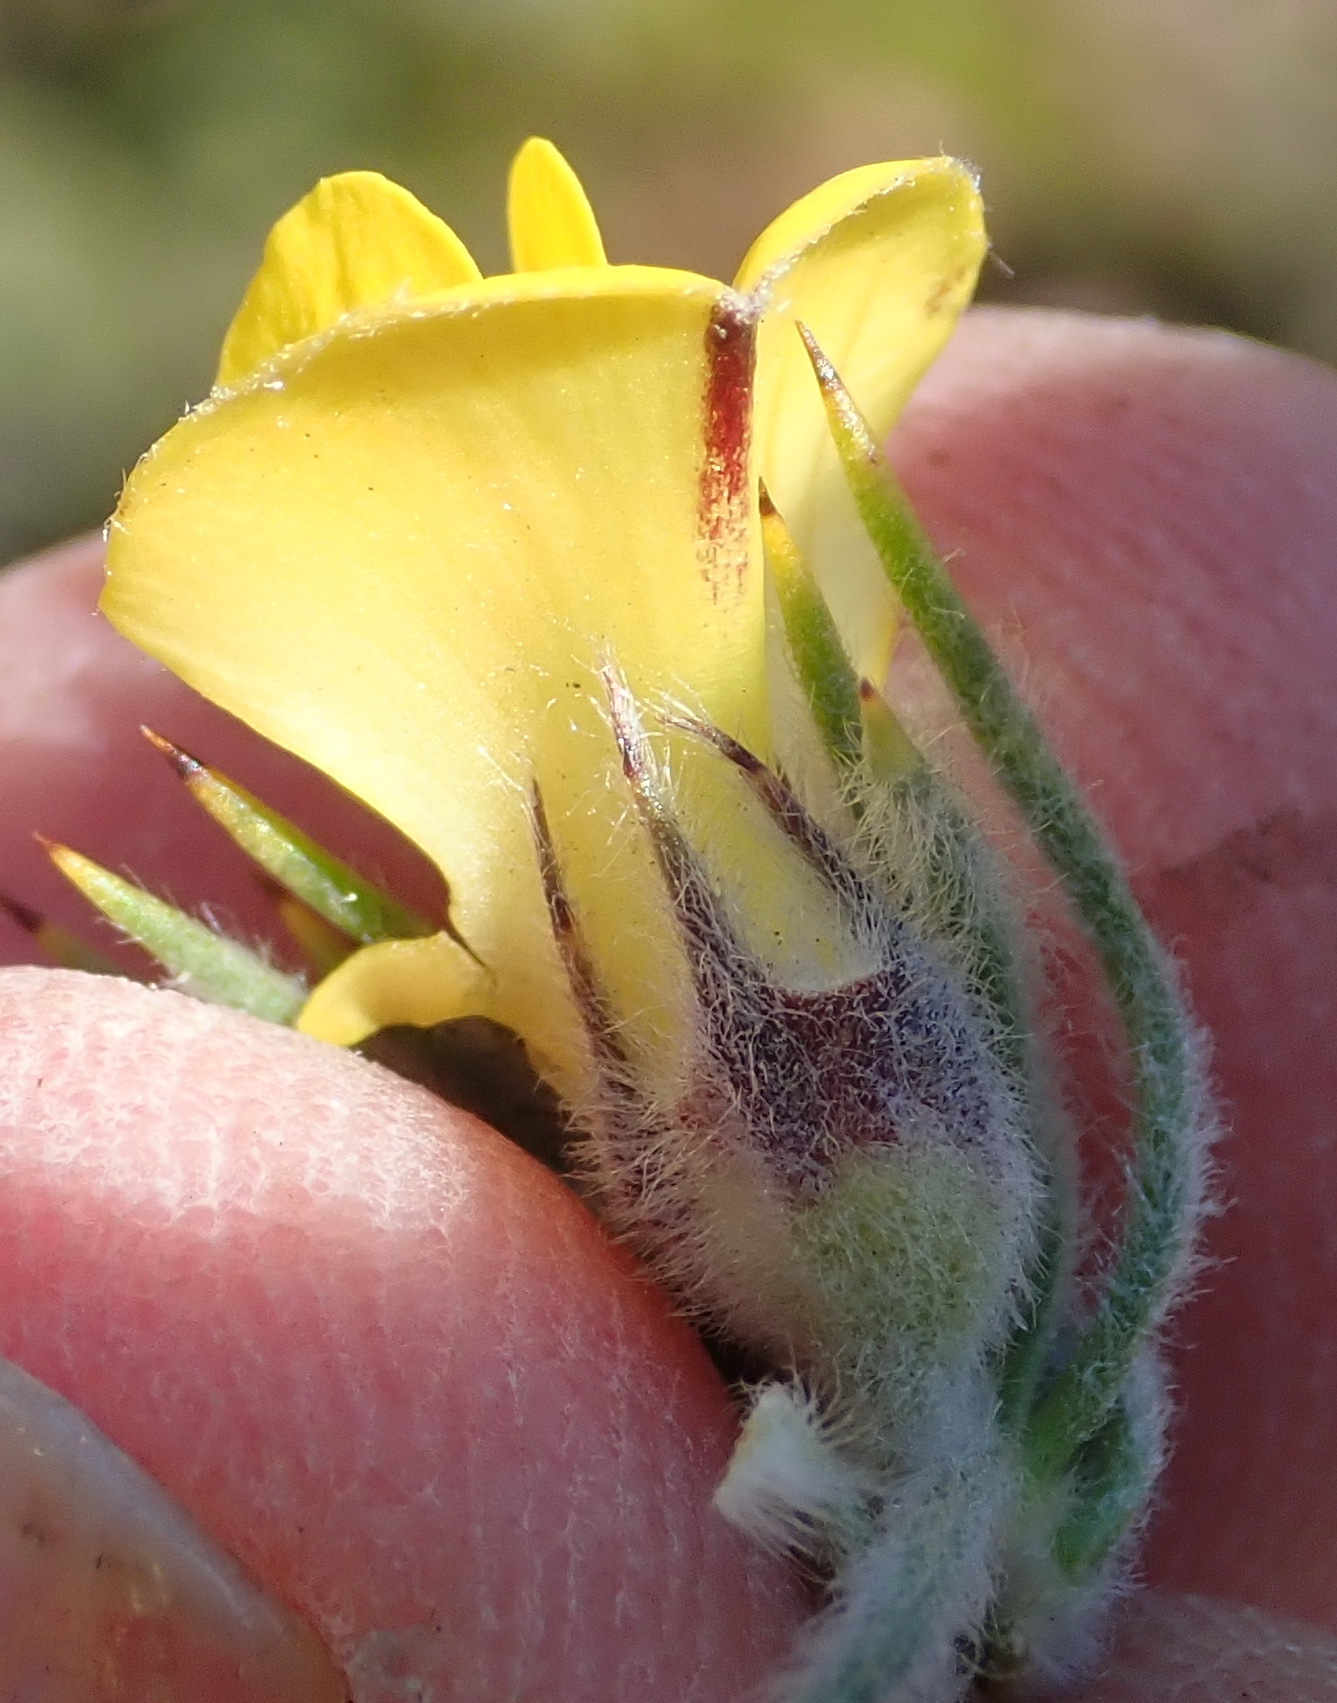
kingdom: Plantae
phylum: Tracheophyta
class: Magnoliopsida
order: Fabales
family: Fabaceae
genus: Aspalathus
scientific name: Aspalathus shawii
